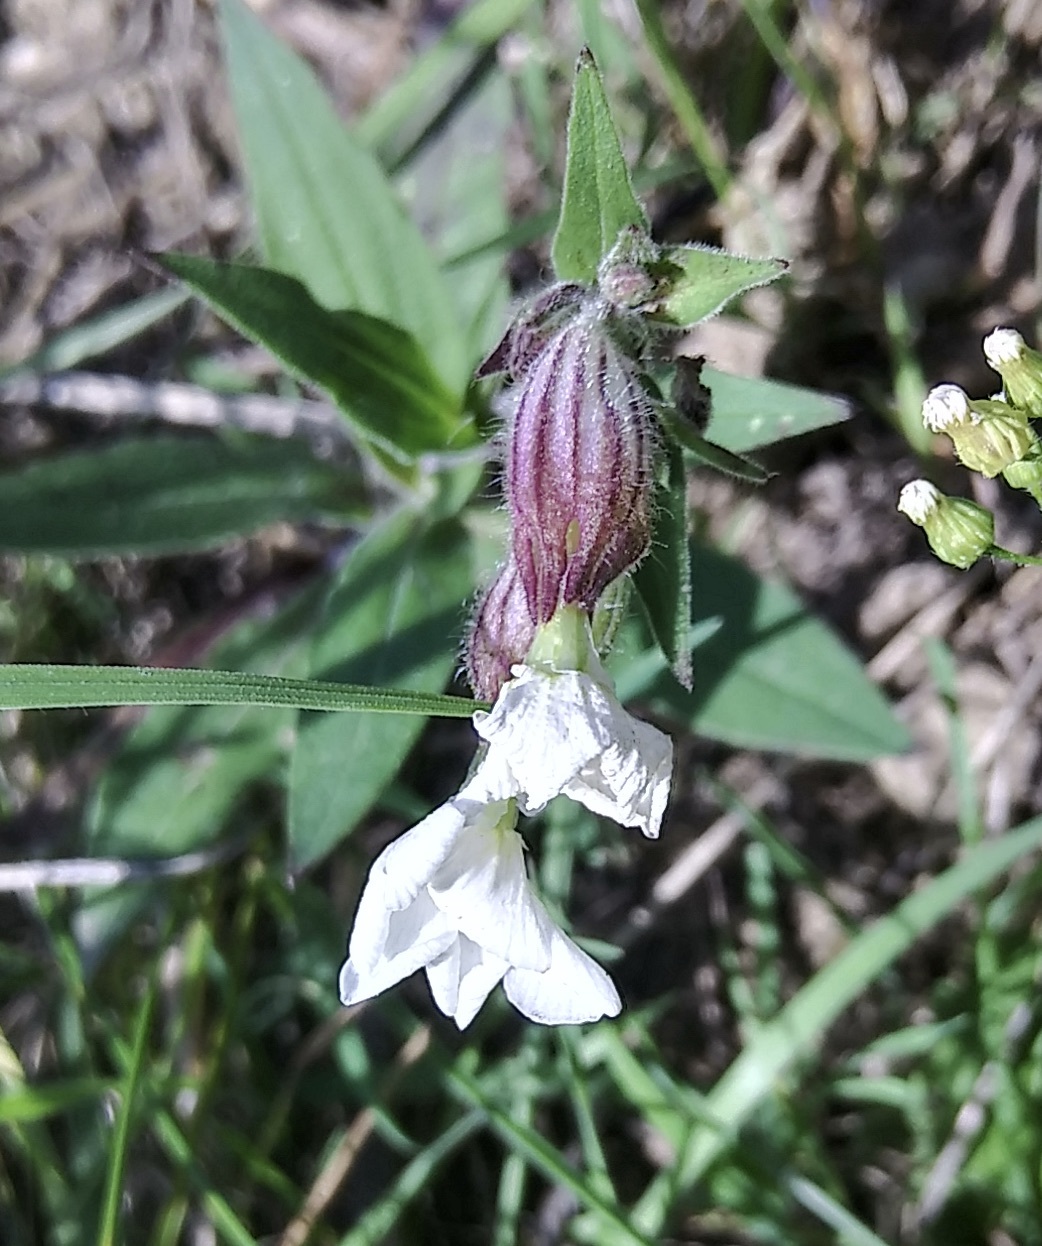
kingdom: Plantae
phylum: Tracheophyta
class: Magnoliopsida
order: Caryophyllales
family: Caryophyllaceae
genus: Silene
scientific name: Silene latifolia
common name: White campion
